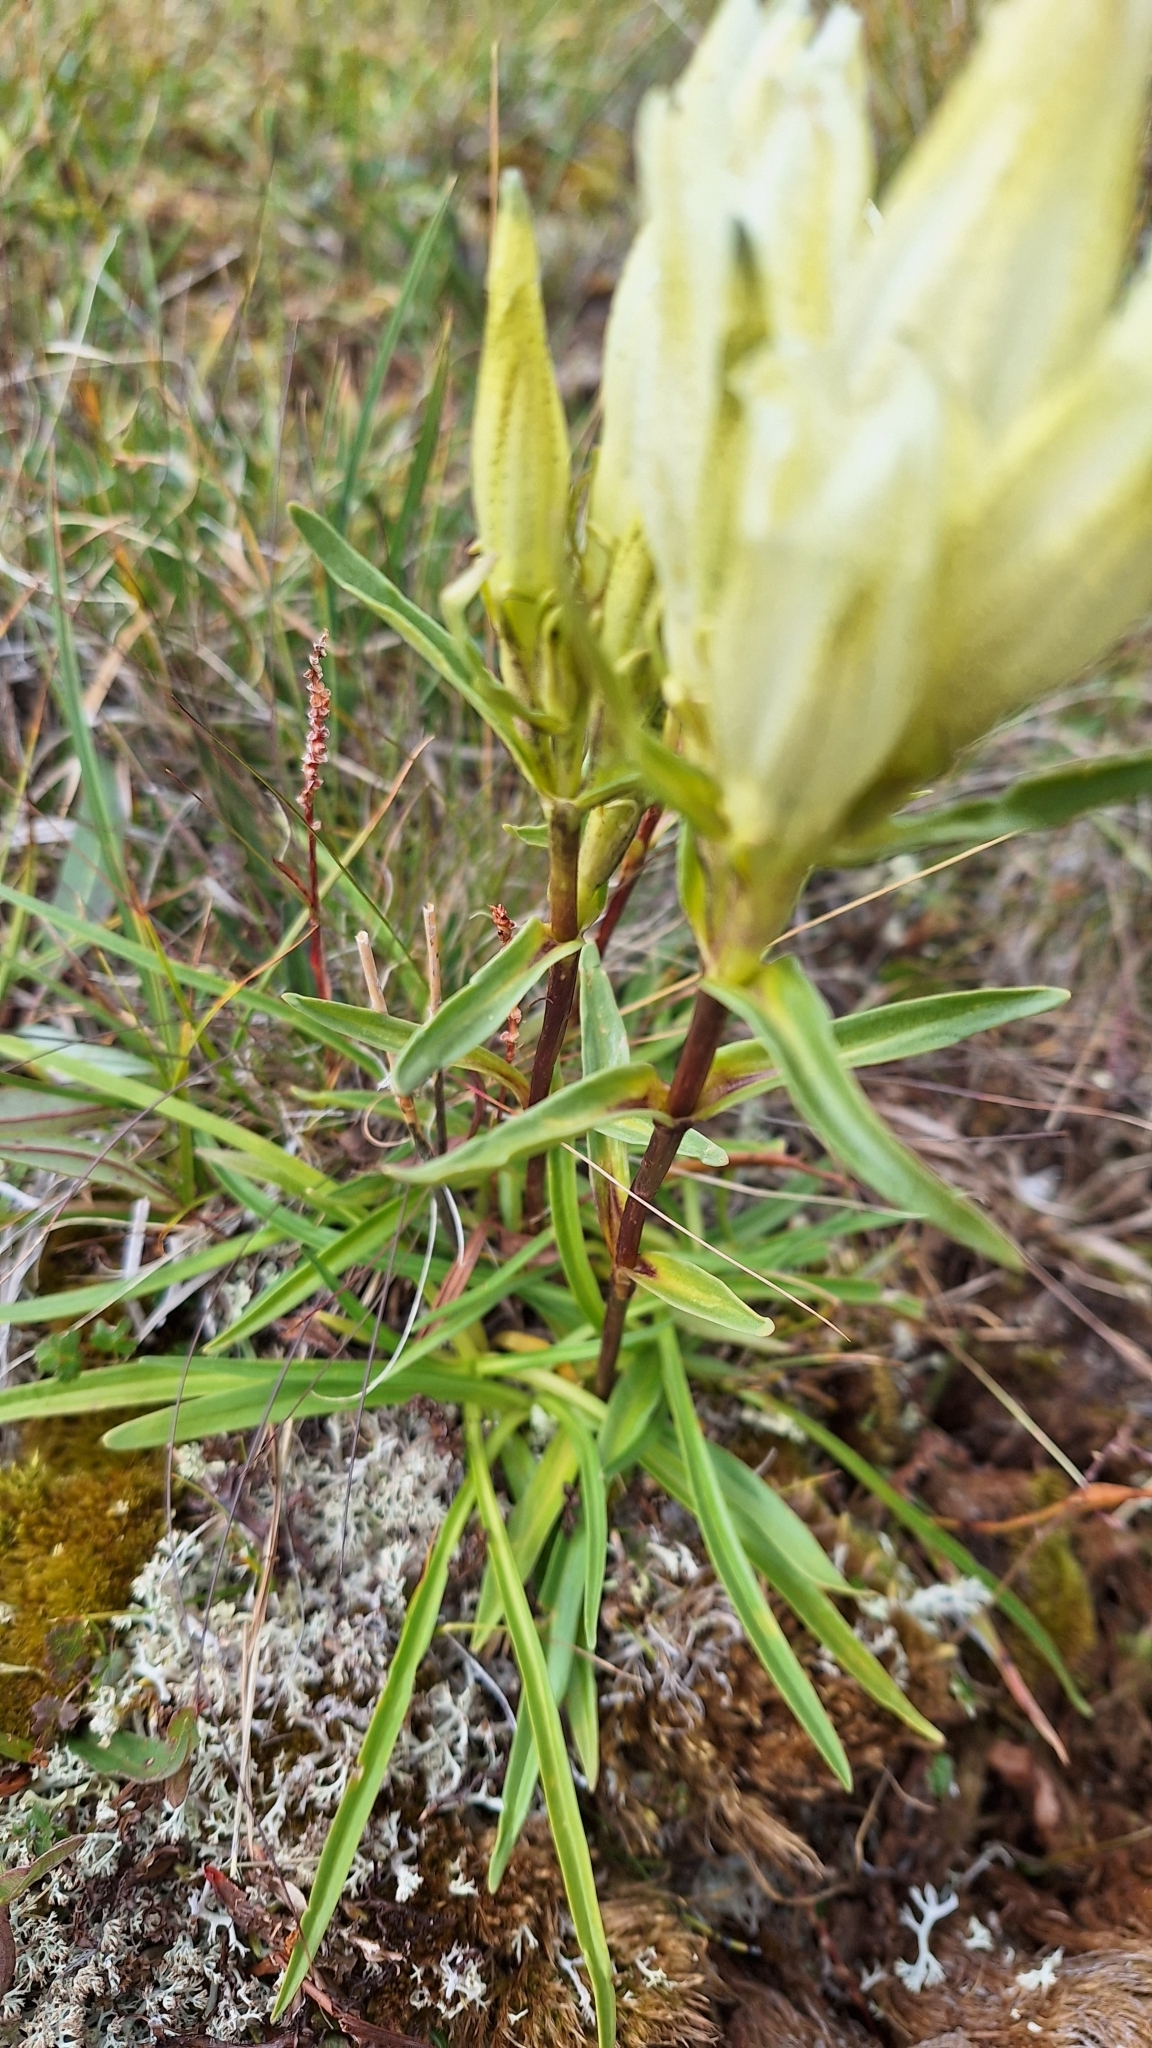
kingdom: Plantae
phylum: Tracheophyta
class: Magnoliopsida
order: Gentianales
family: Gentianaceae
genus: Gentiana
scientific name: Gentiana algida
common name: Arctic gentian
